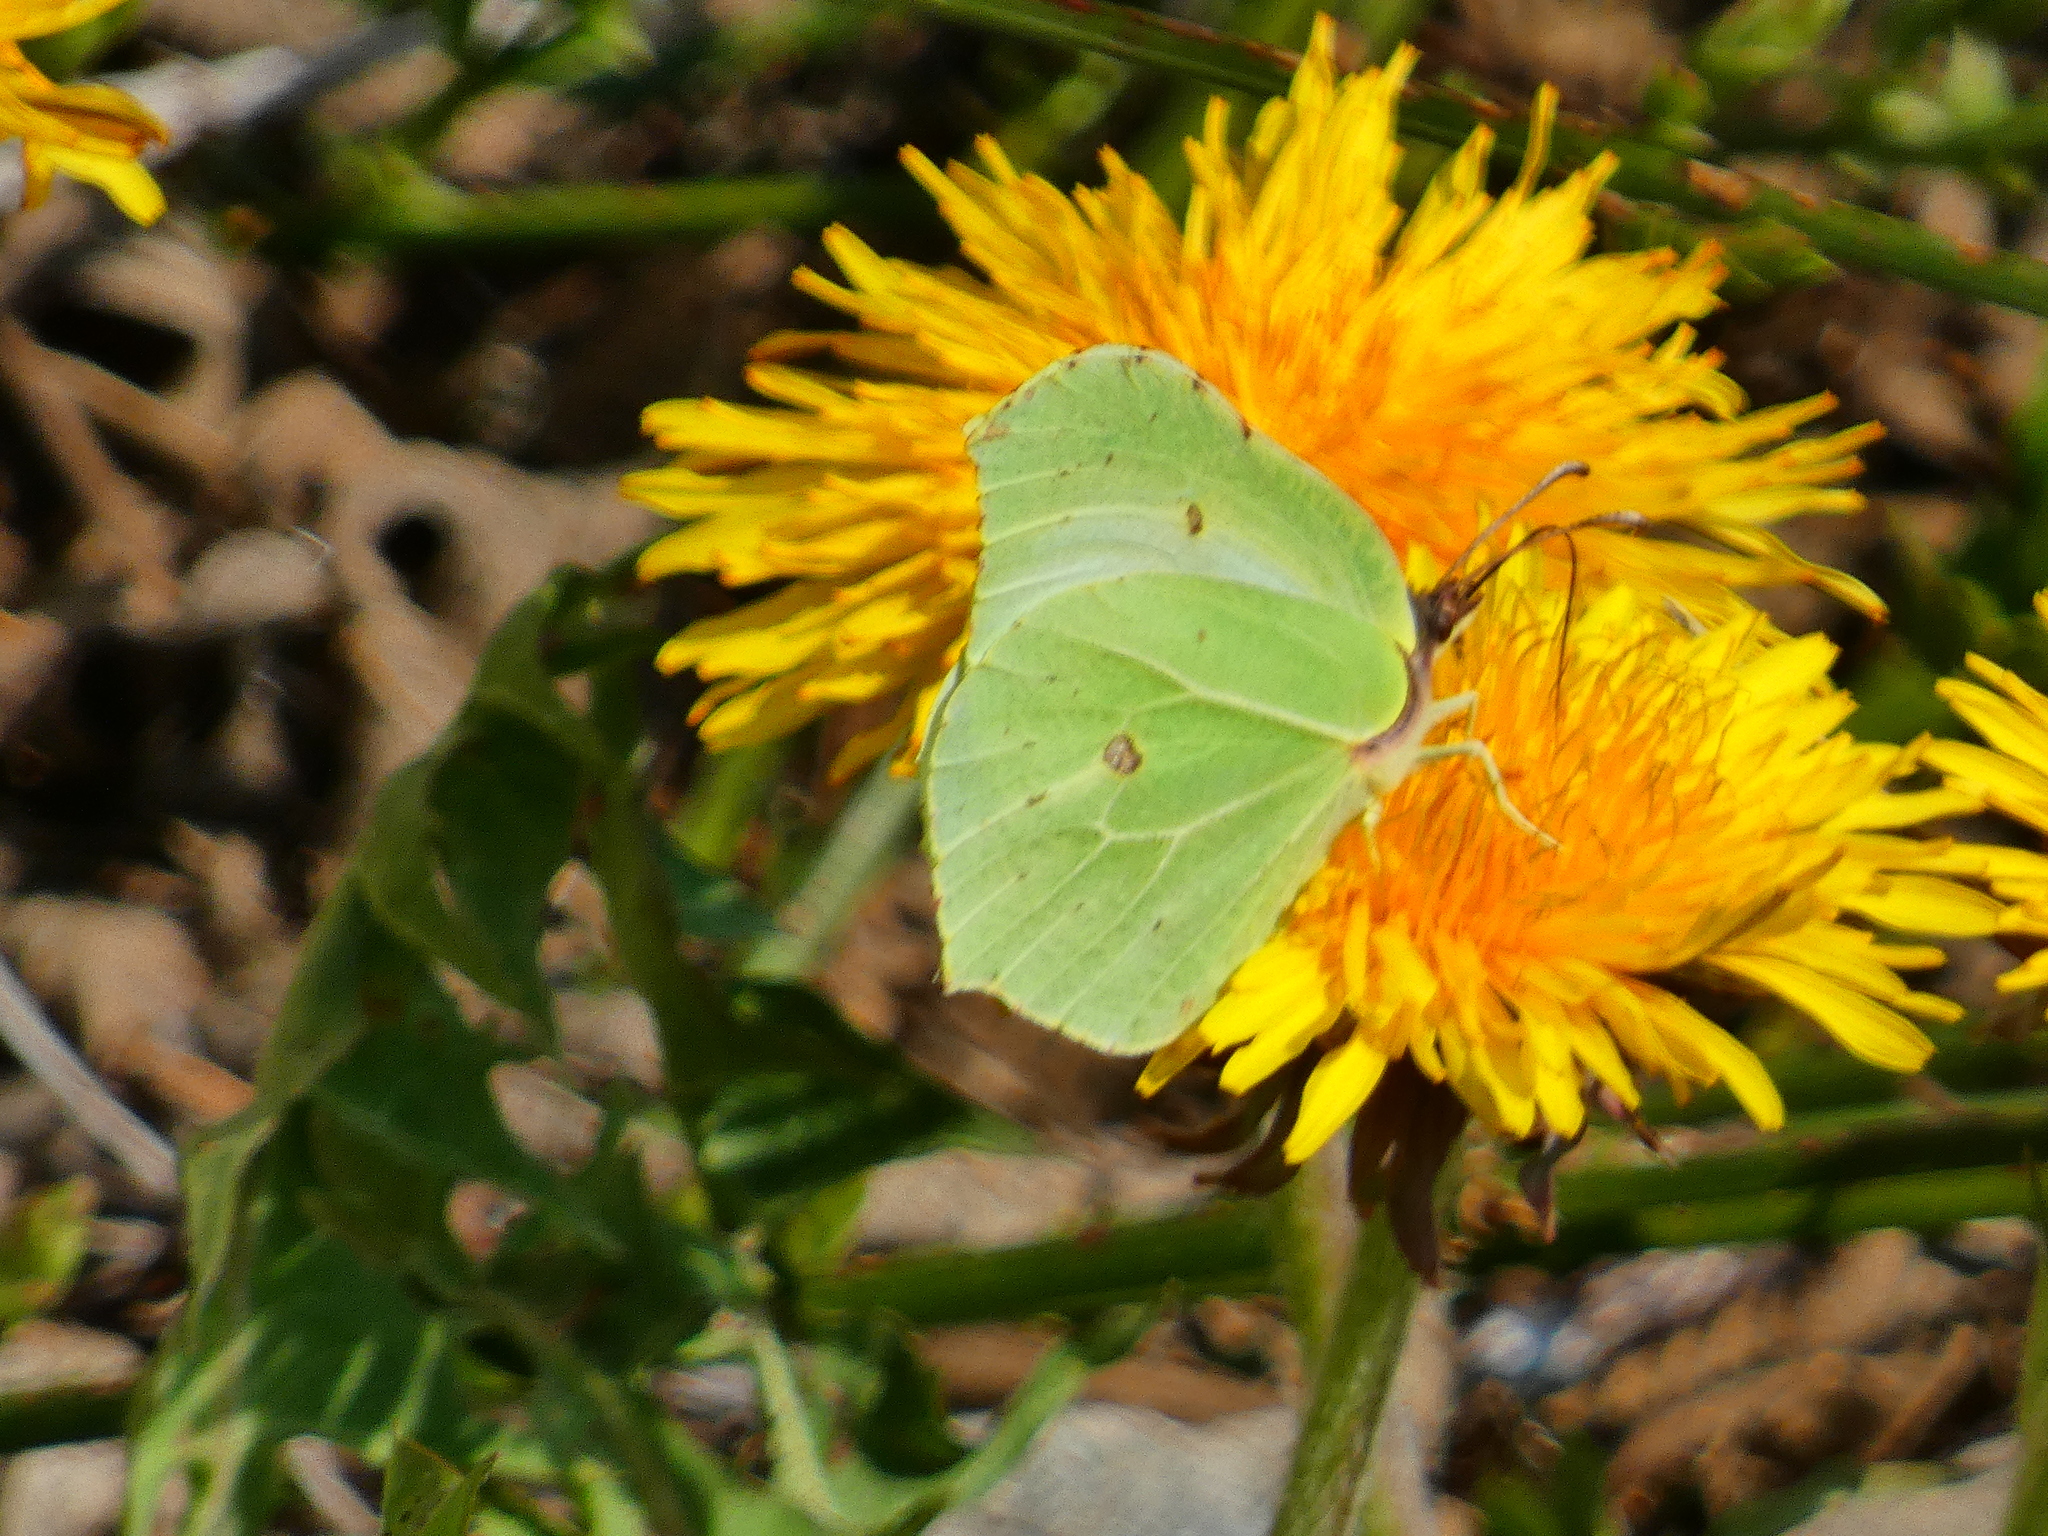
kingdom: Animalia
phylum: Arthropoda
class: Insecta
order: Lepidoptera
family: Pieridae
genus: Gonepteryx
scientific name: Gonepteryx rhamni
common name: Brimstone
